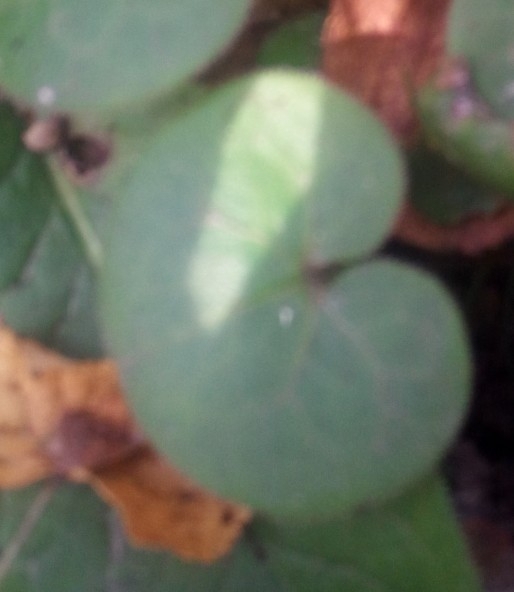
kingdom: Plantae
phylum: Tracheophyta
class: Magnoliopsida
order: Piperales
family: Aristolochiaceae
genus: Asarum
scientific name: Asarum europaeum
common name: Asarabacca
